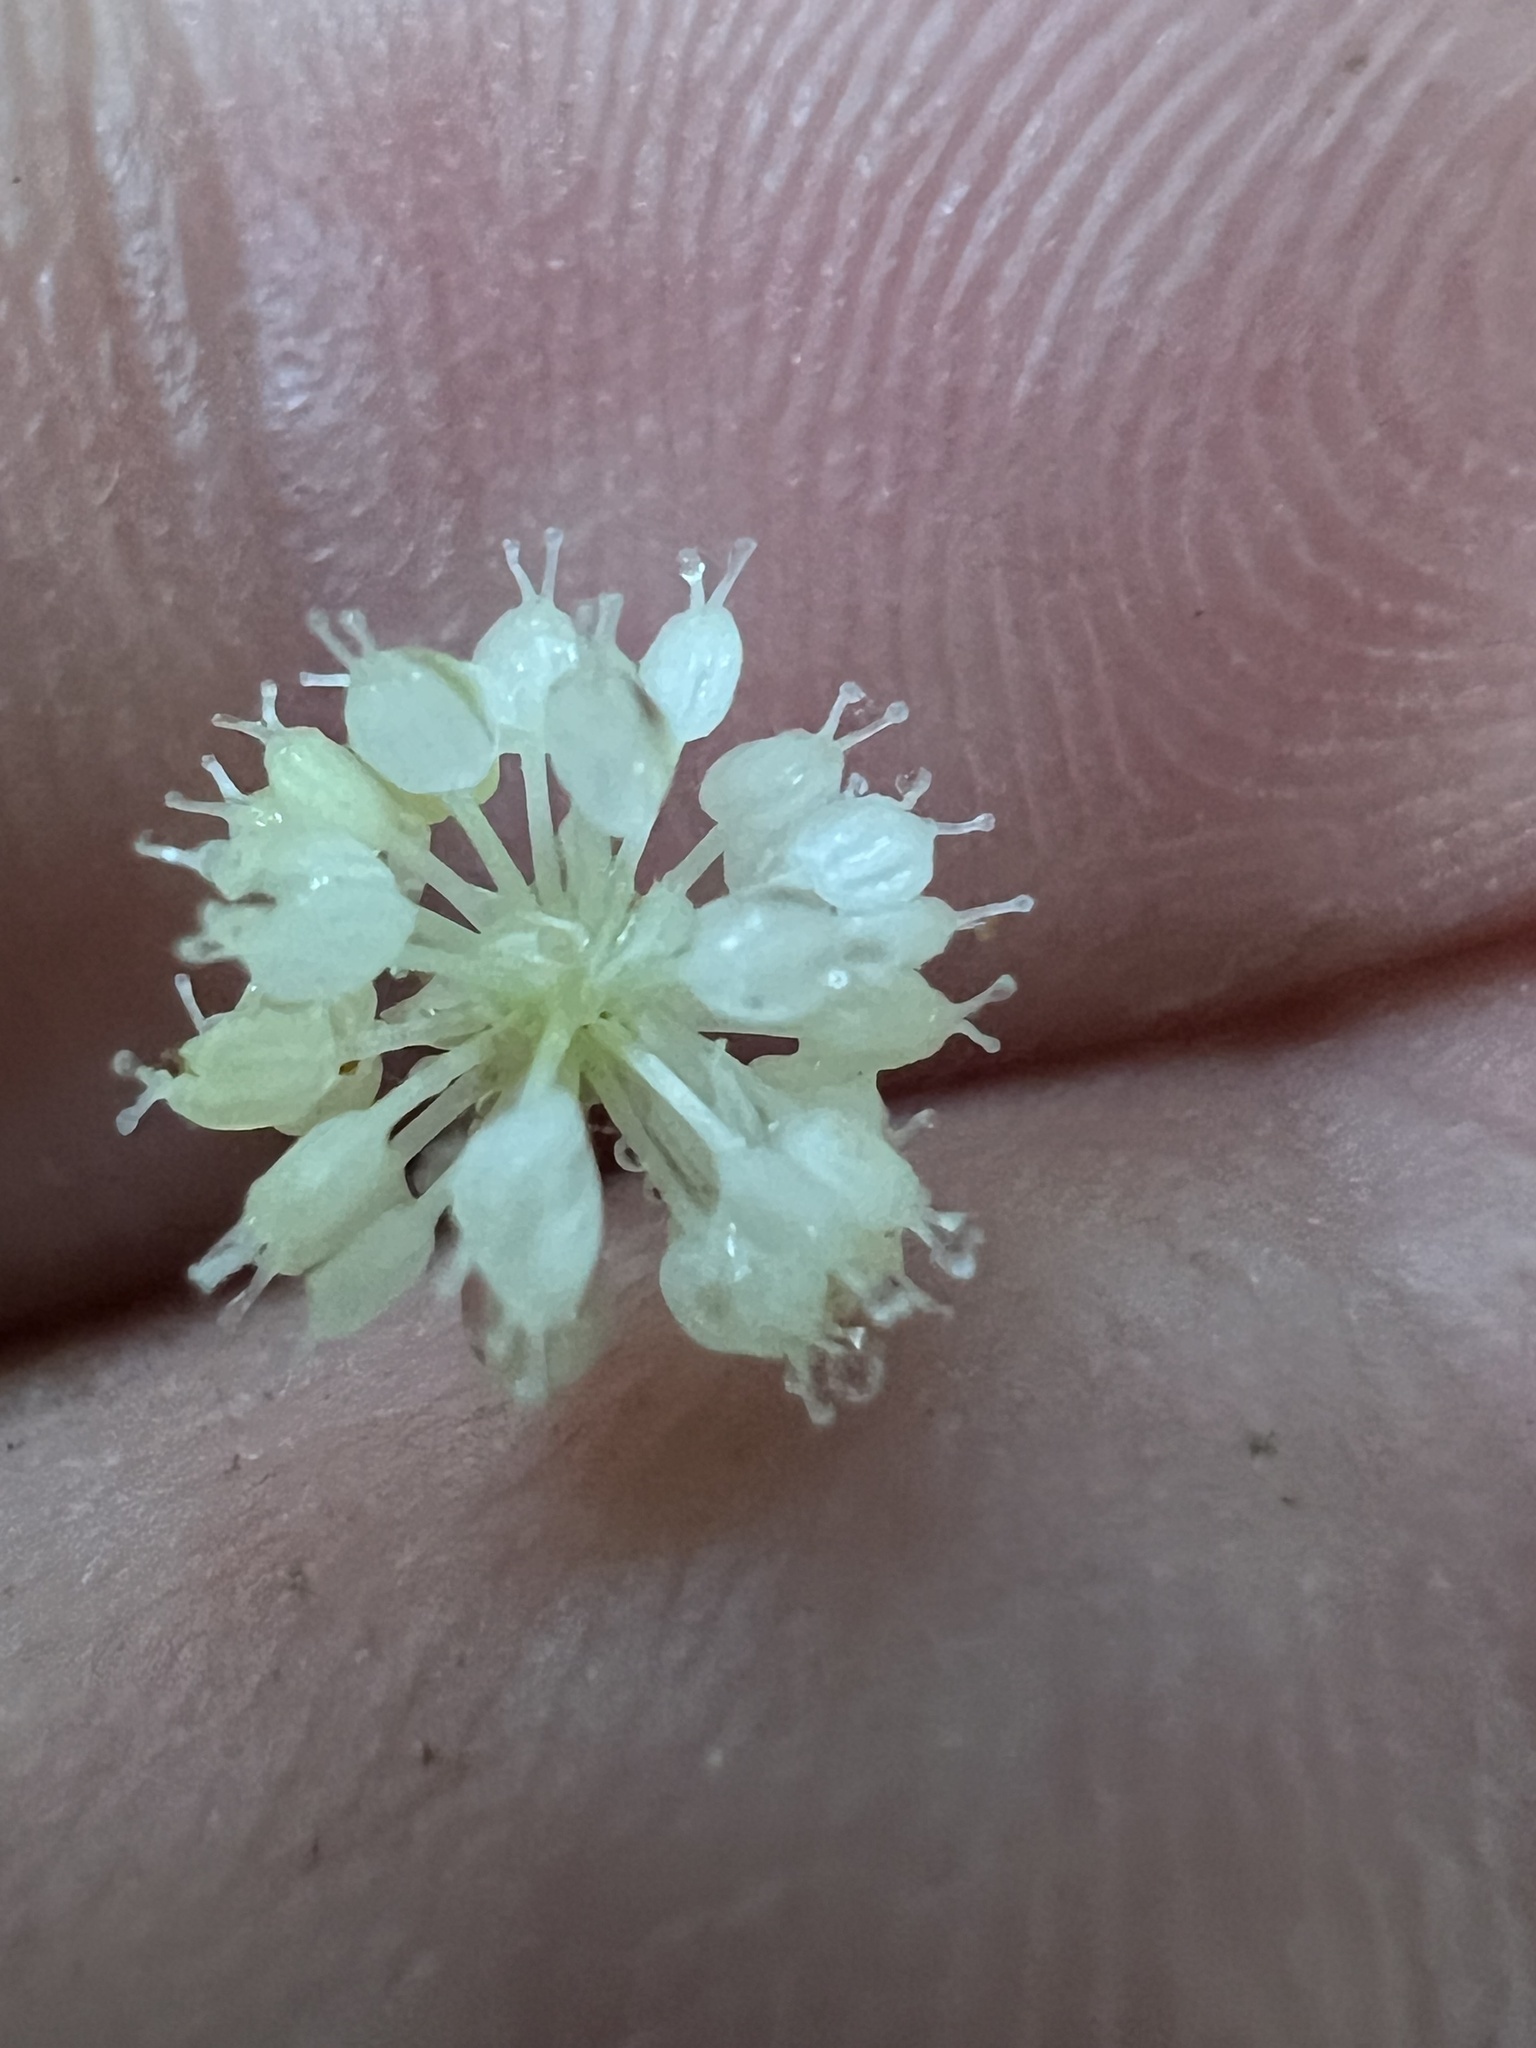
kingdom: Plantae
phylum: Tracheophyta
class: Magnoliopsida
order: Apiales
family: Araliaceae
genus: Hydrocotyle
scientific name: Hydrocotyle leucocephala
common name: Brazilian pennywort
